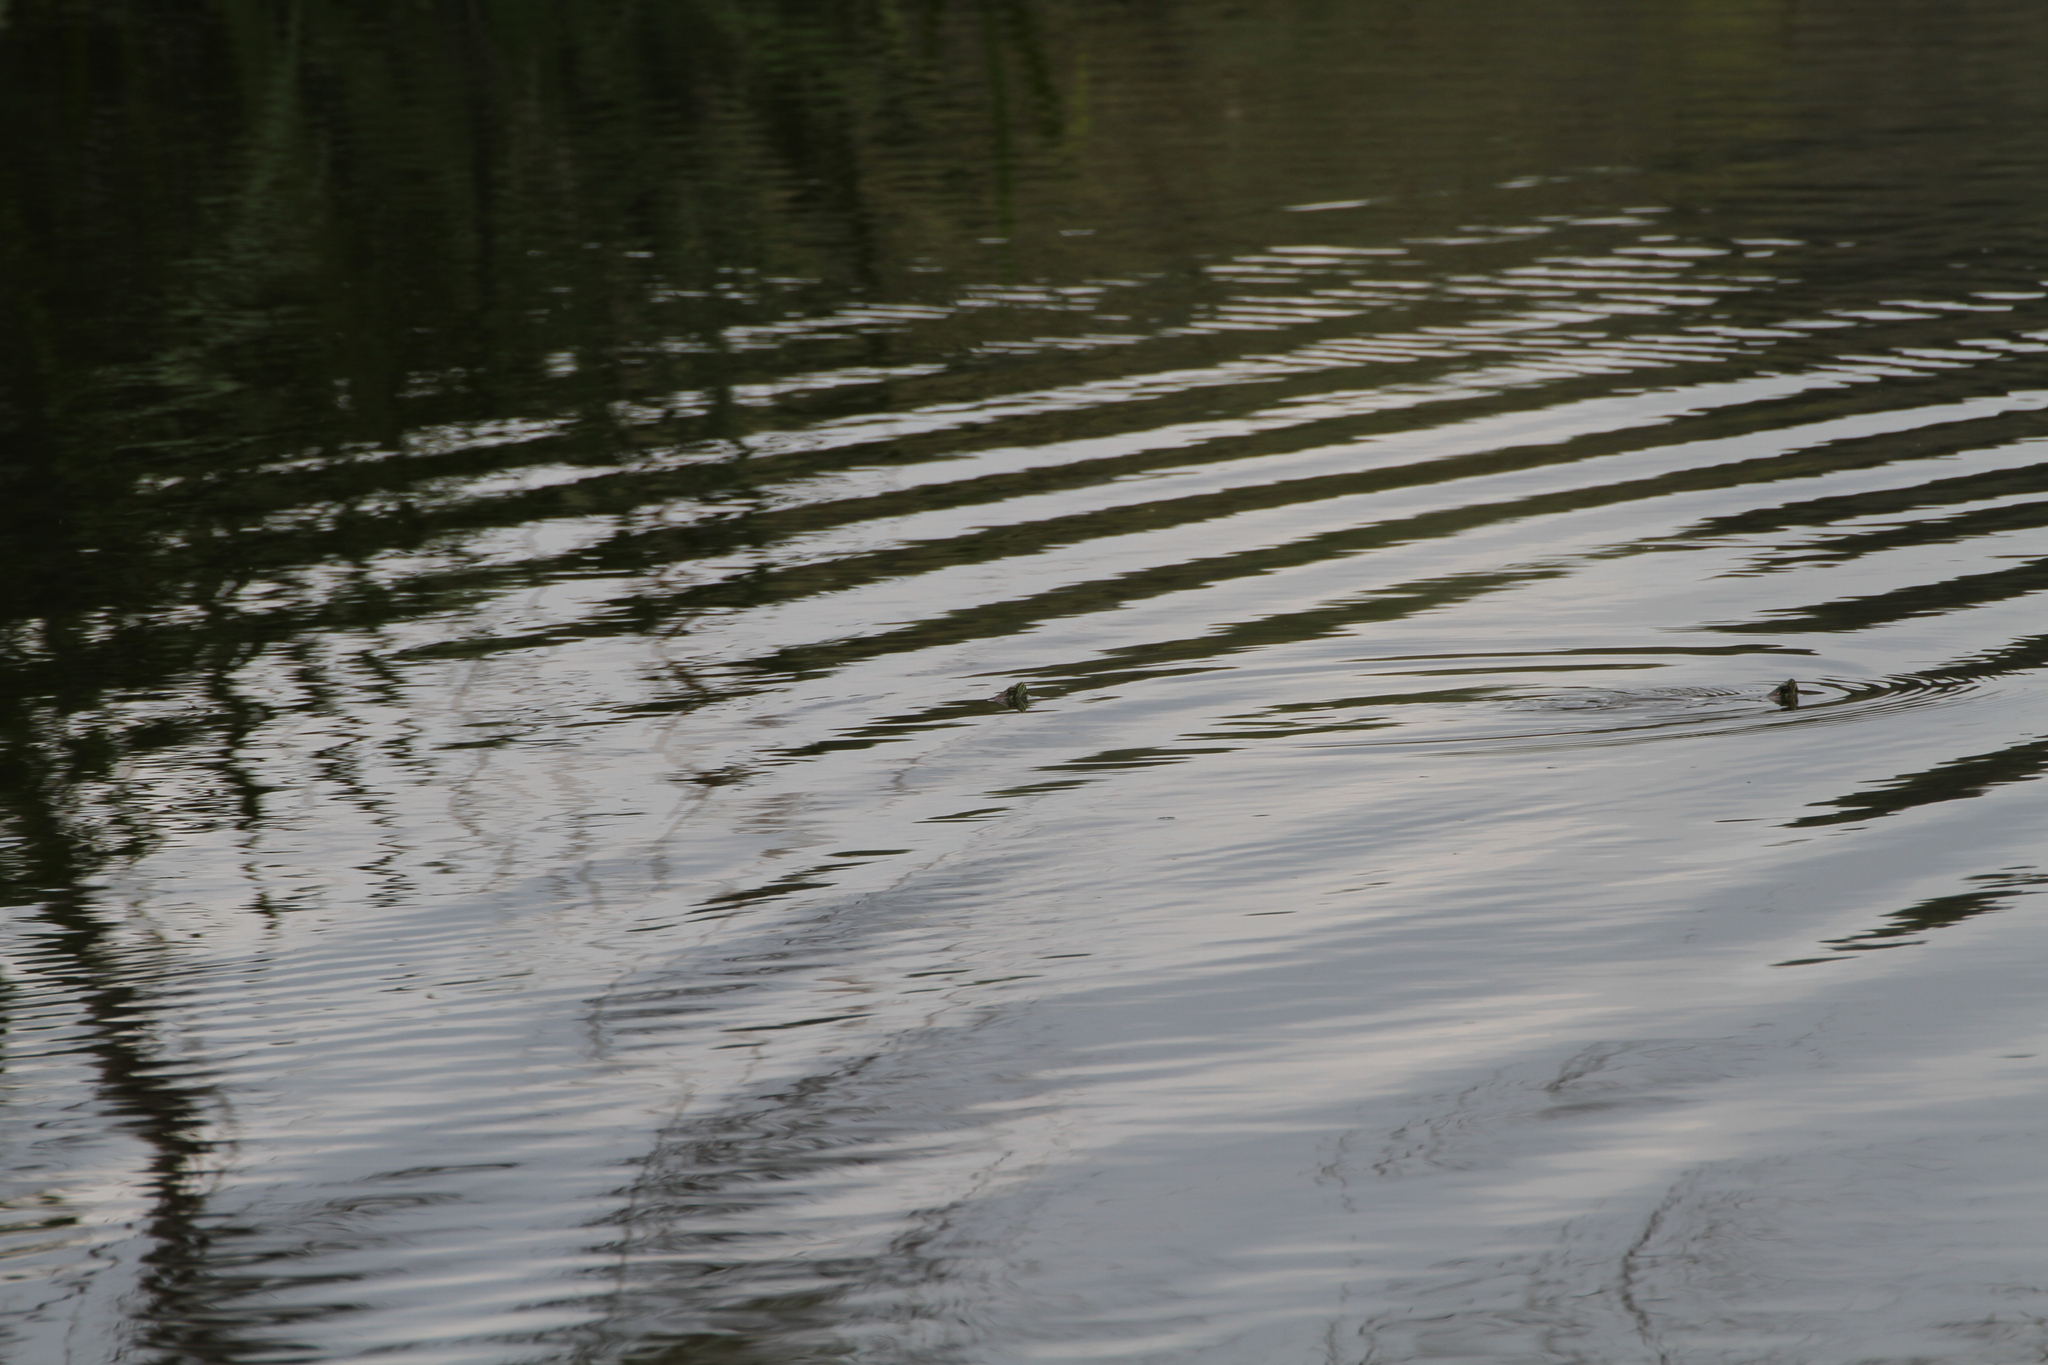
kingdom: Animalia
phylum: Chordata
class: Testudines
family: Emydidae
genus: Trachemys
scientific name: Trachemys scripta
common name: Slider
